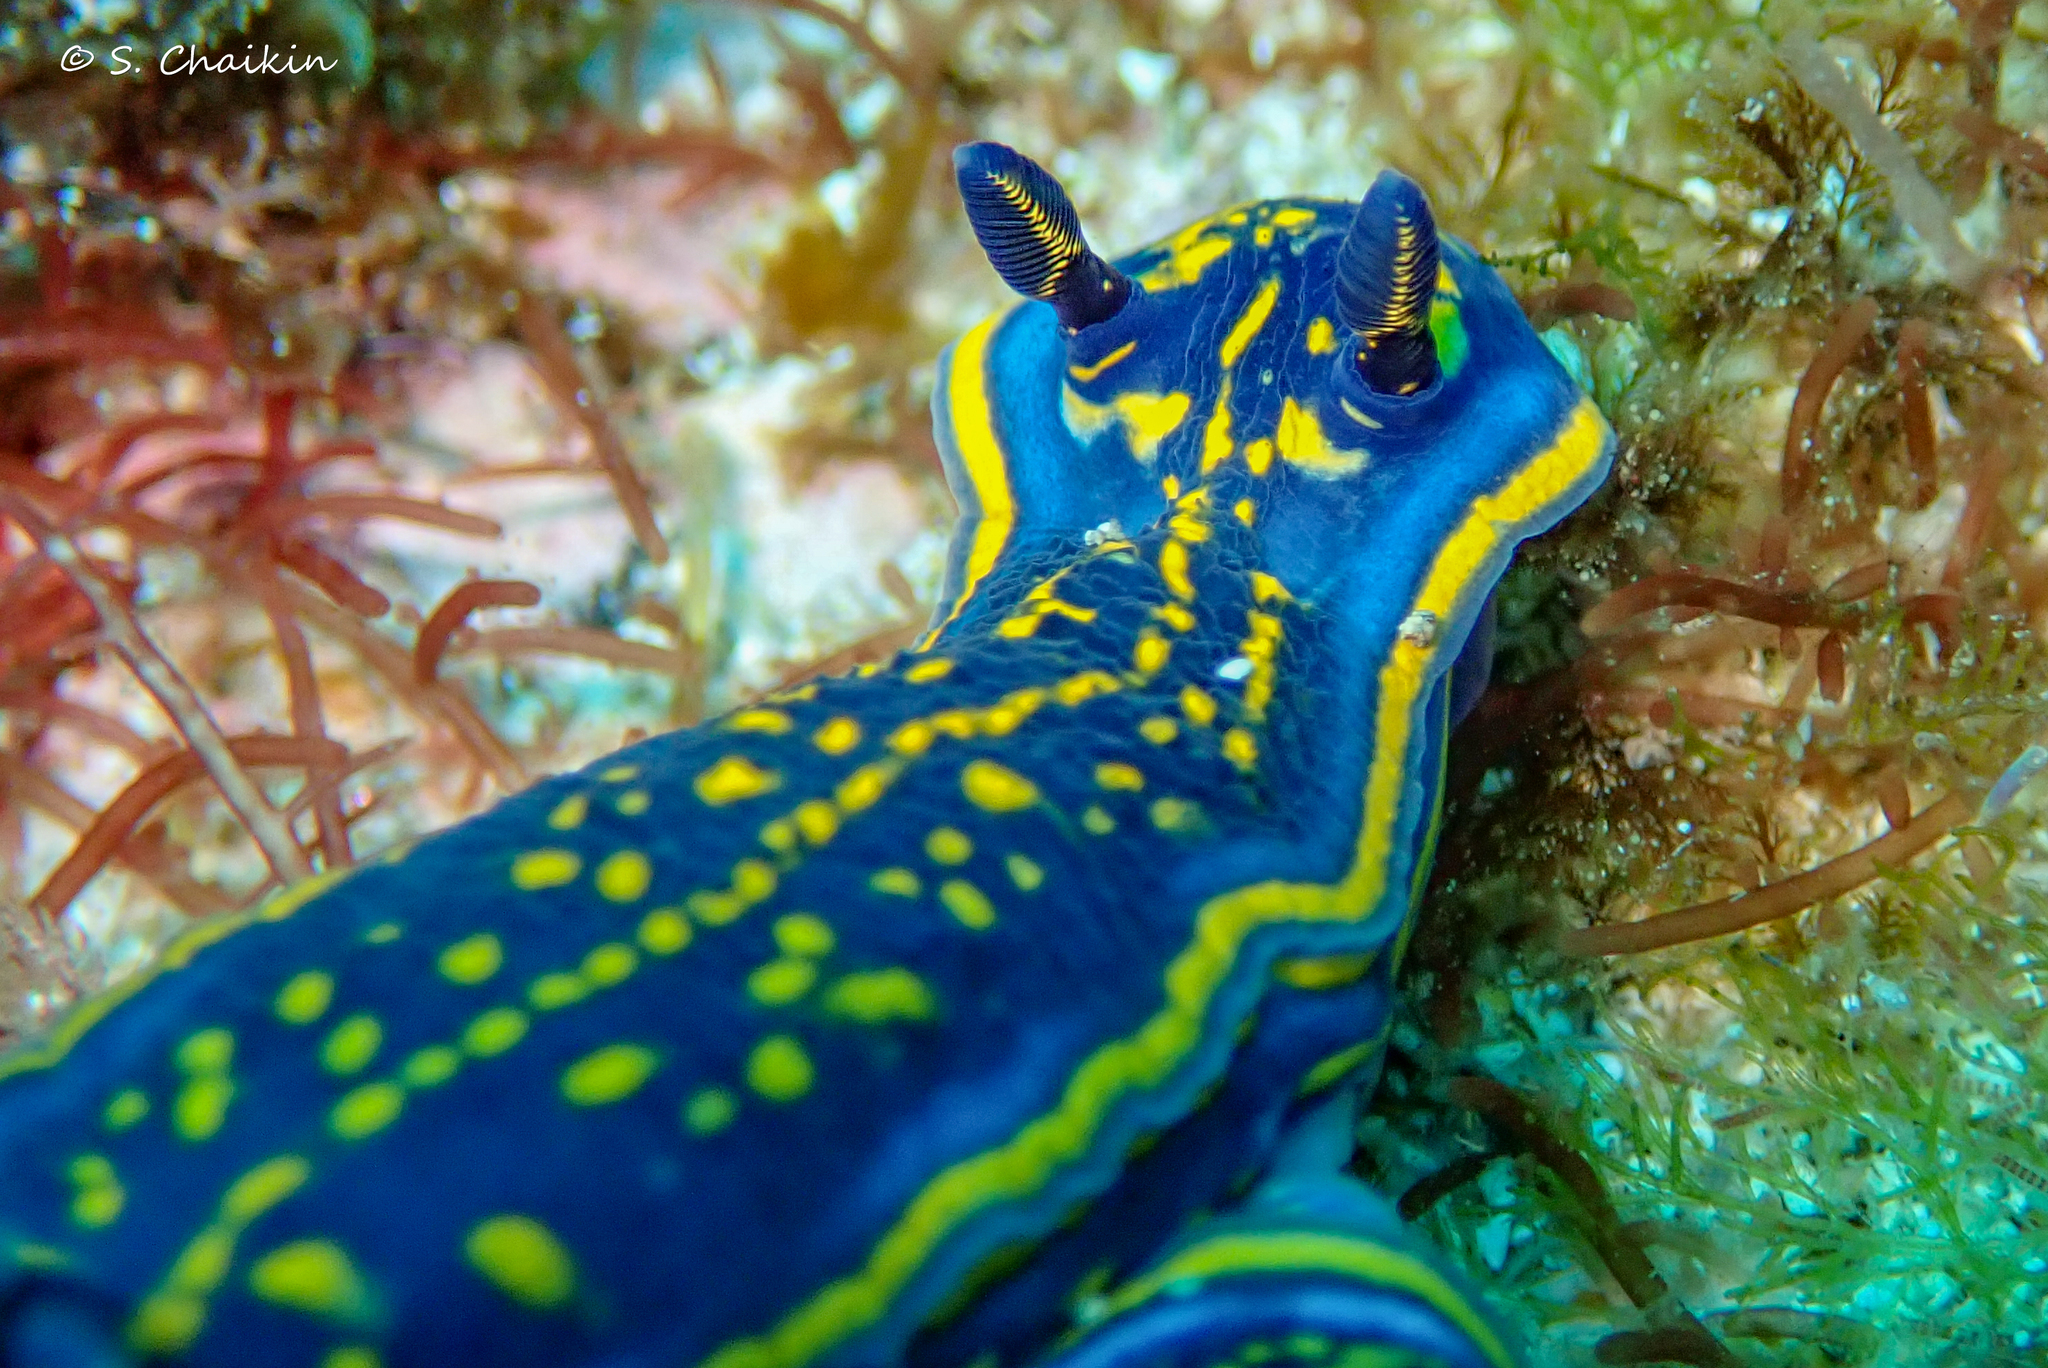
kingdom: Animalia
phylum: Mollusca
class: Gastropoda
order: Nudibranchia
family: Chromodorididae
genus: Felimare
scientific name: Felimare cantabrica
